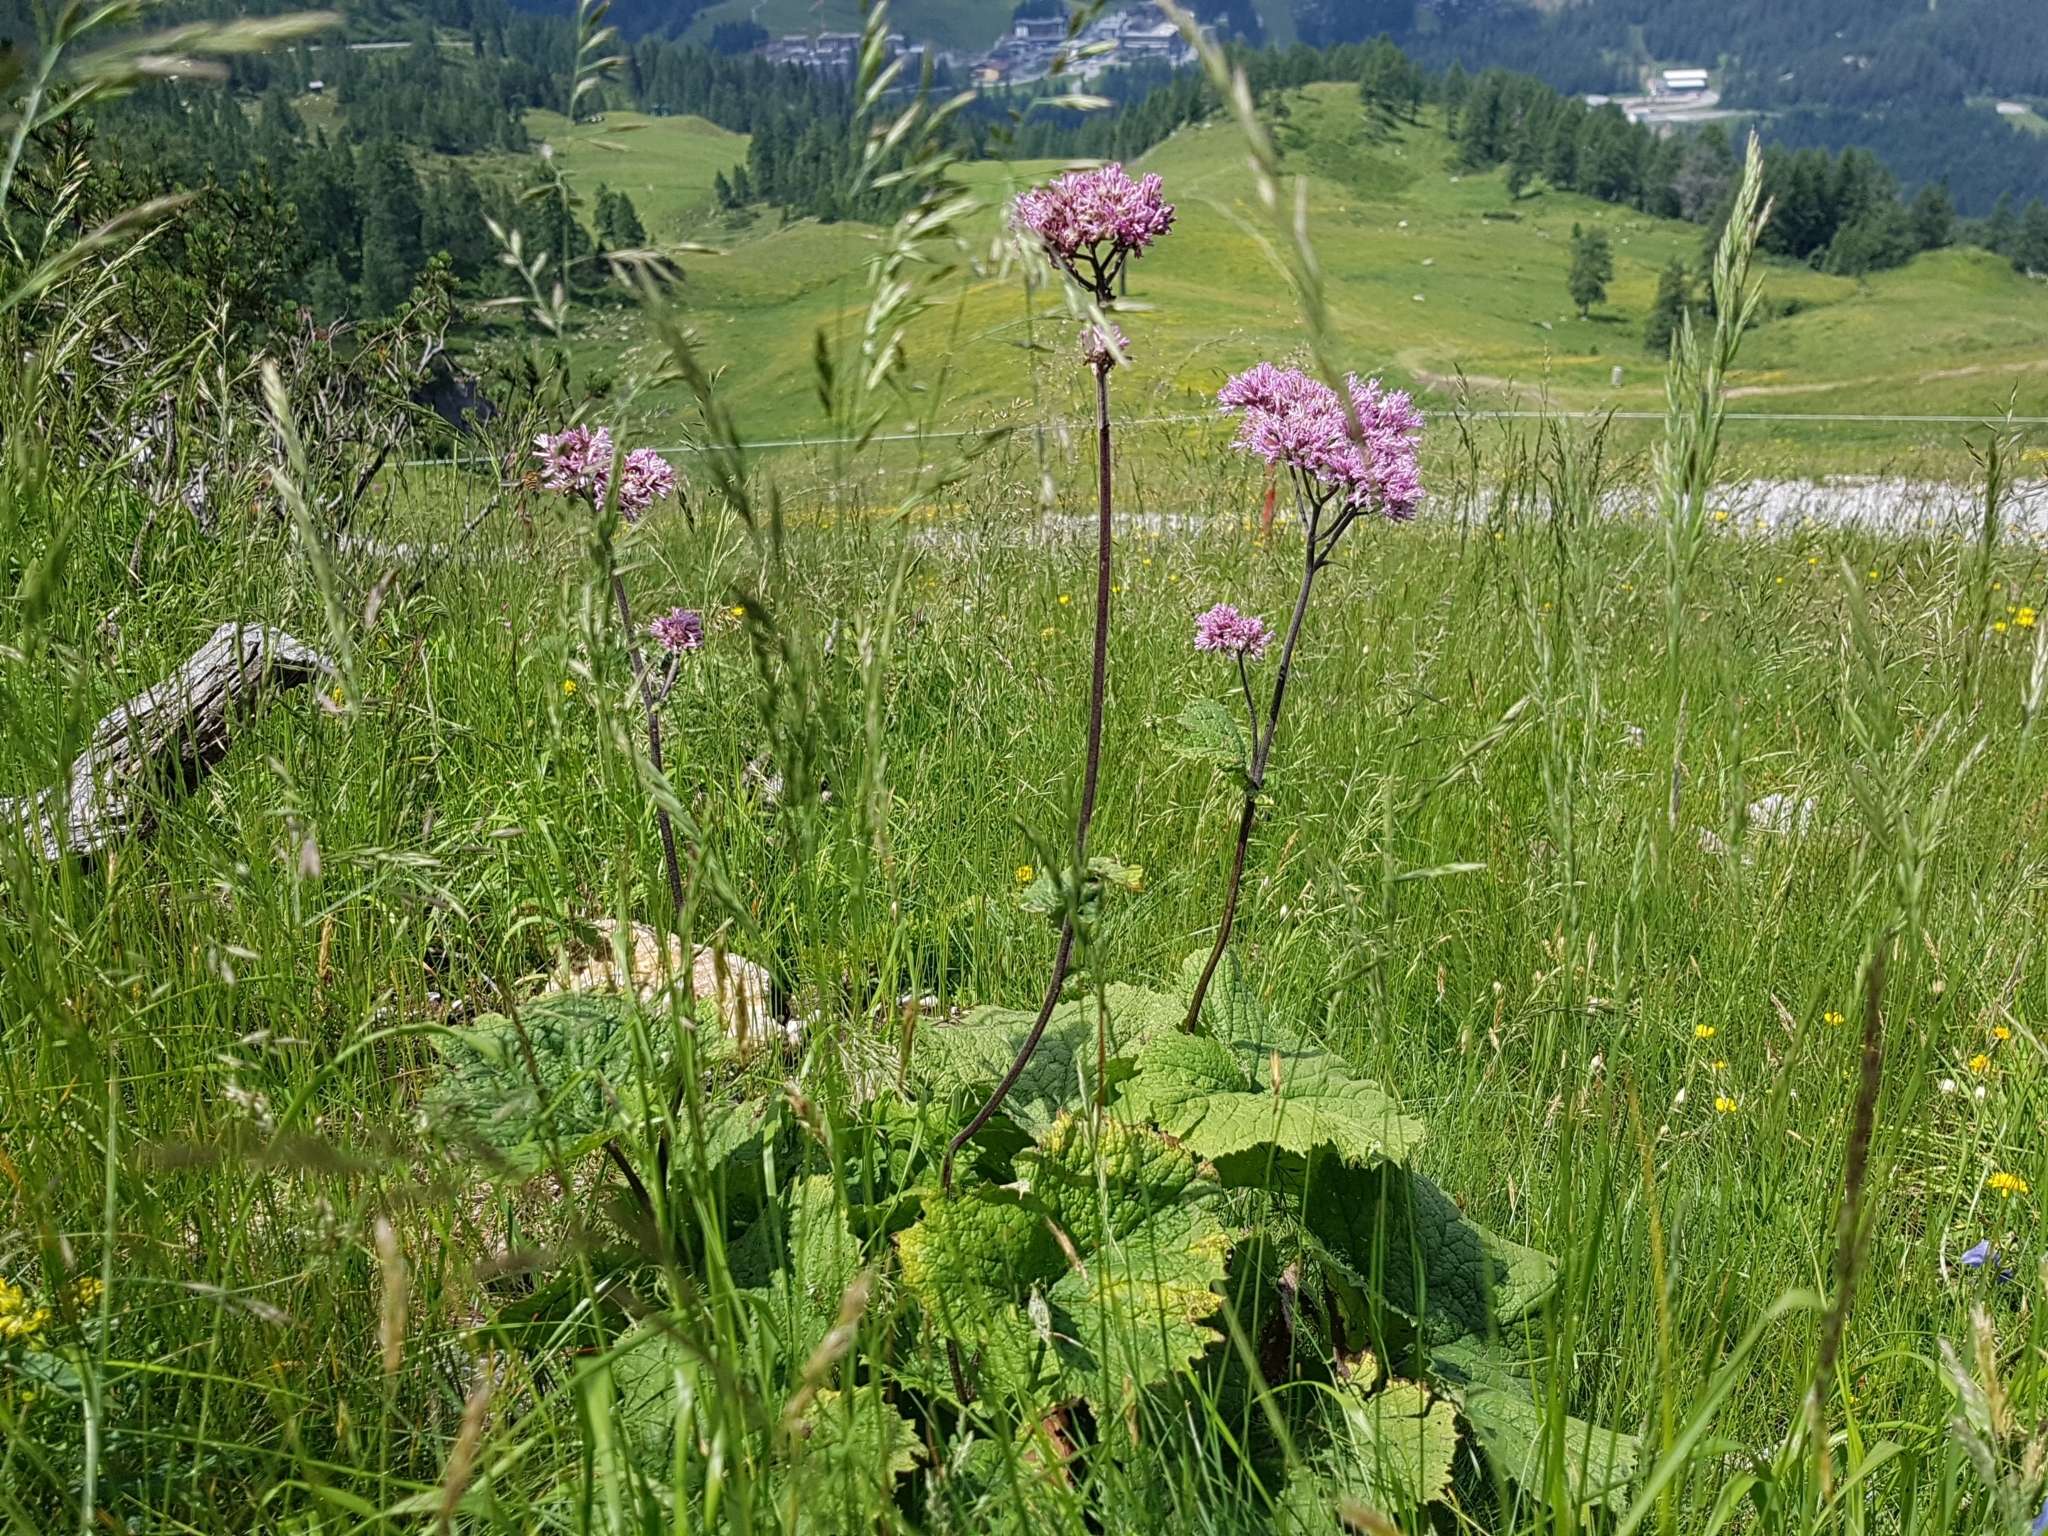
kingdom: Plantae
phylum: Tracheophyta
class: Magnoliopsida
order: Asterales
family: Asteraceae
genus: Adenostyles
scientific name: Adenostyles alliariae
